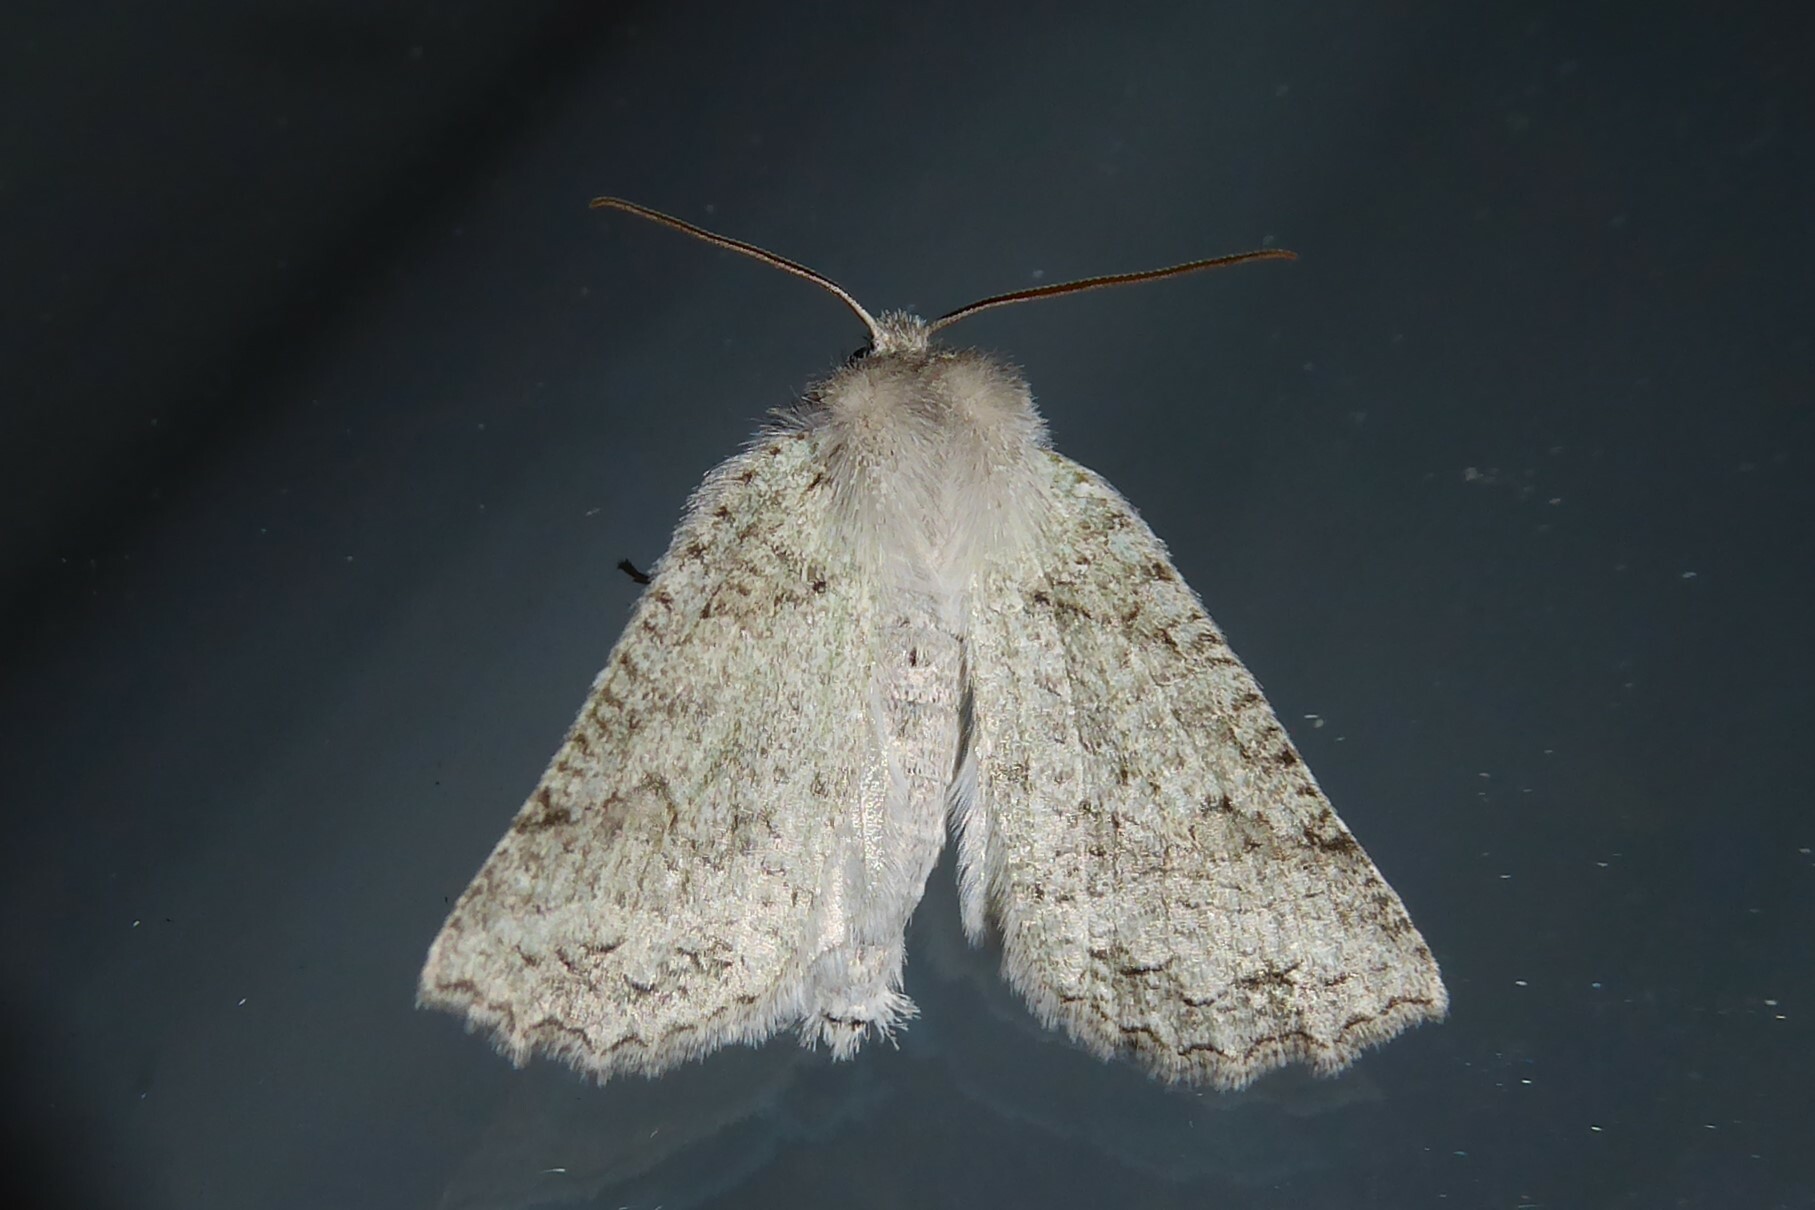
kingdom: Animalia
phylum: Arthropoda
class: Insecta
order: Lepidoptera
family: Geometridae
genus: Declana
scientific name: Declana niveata
